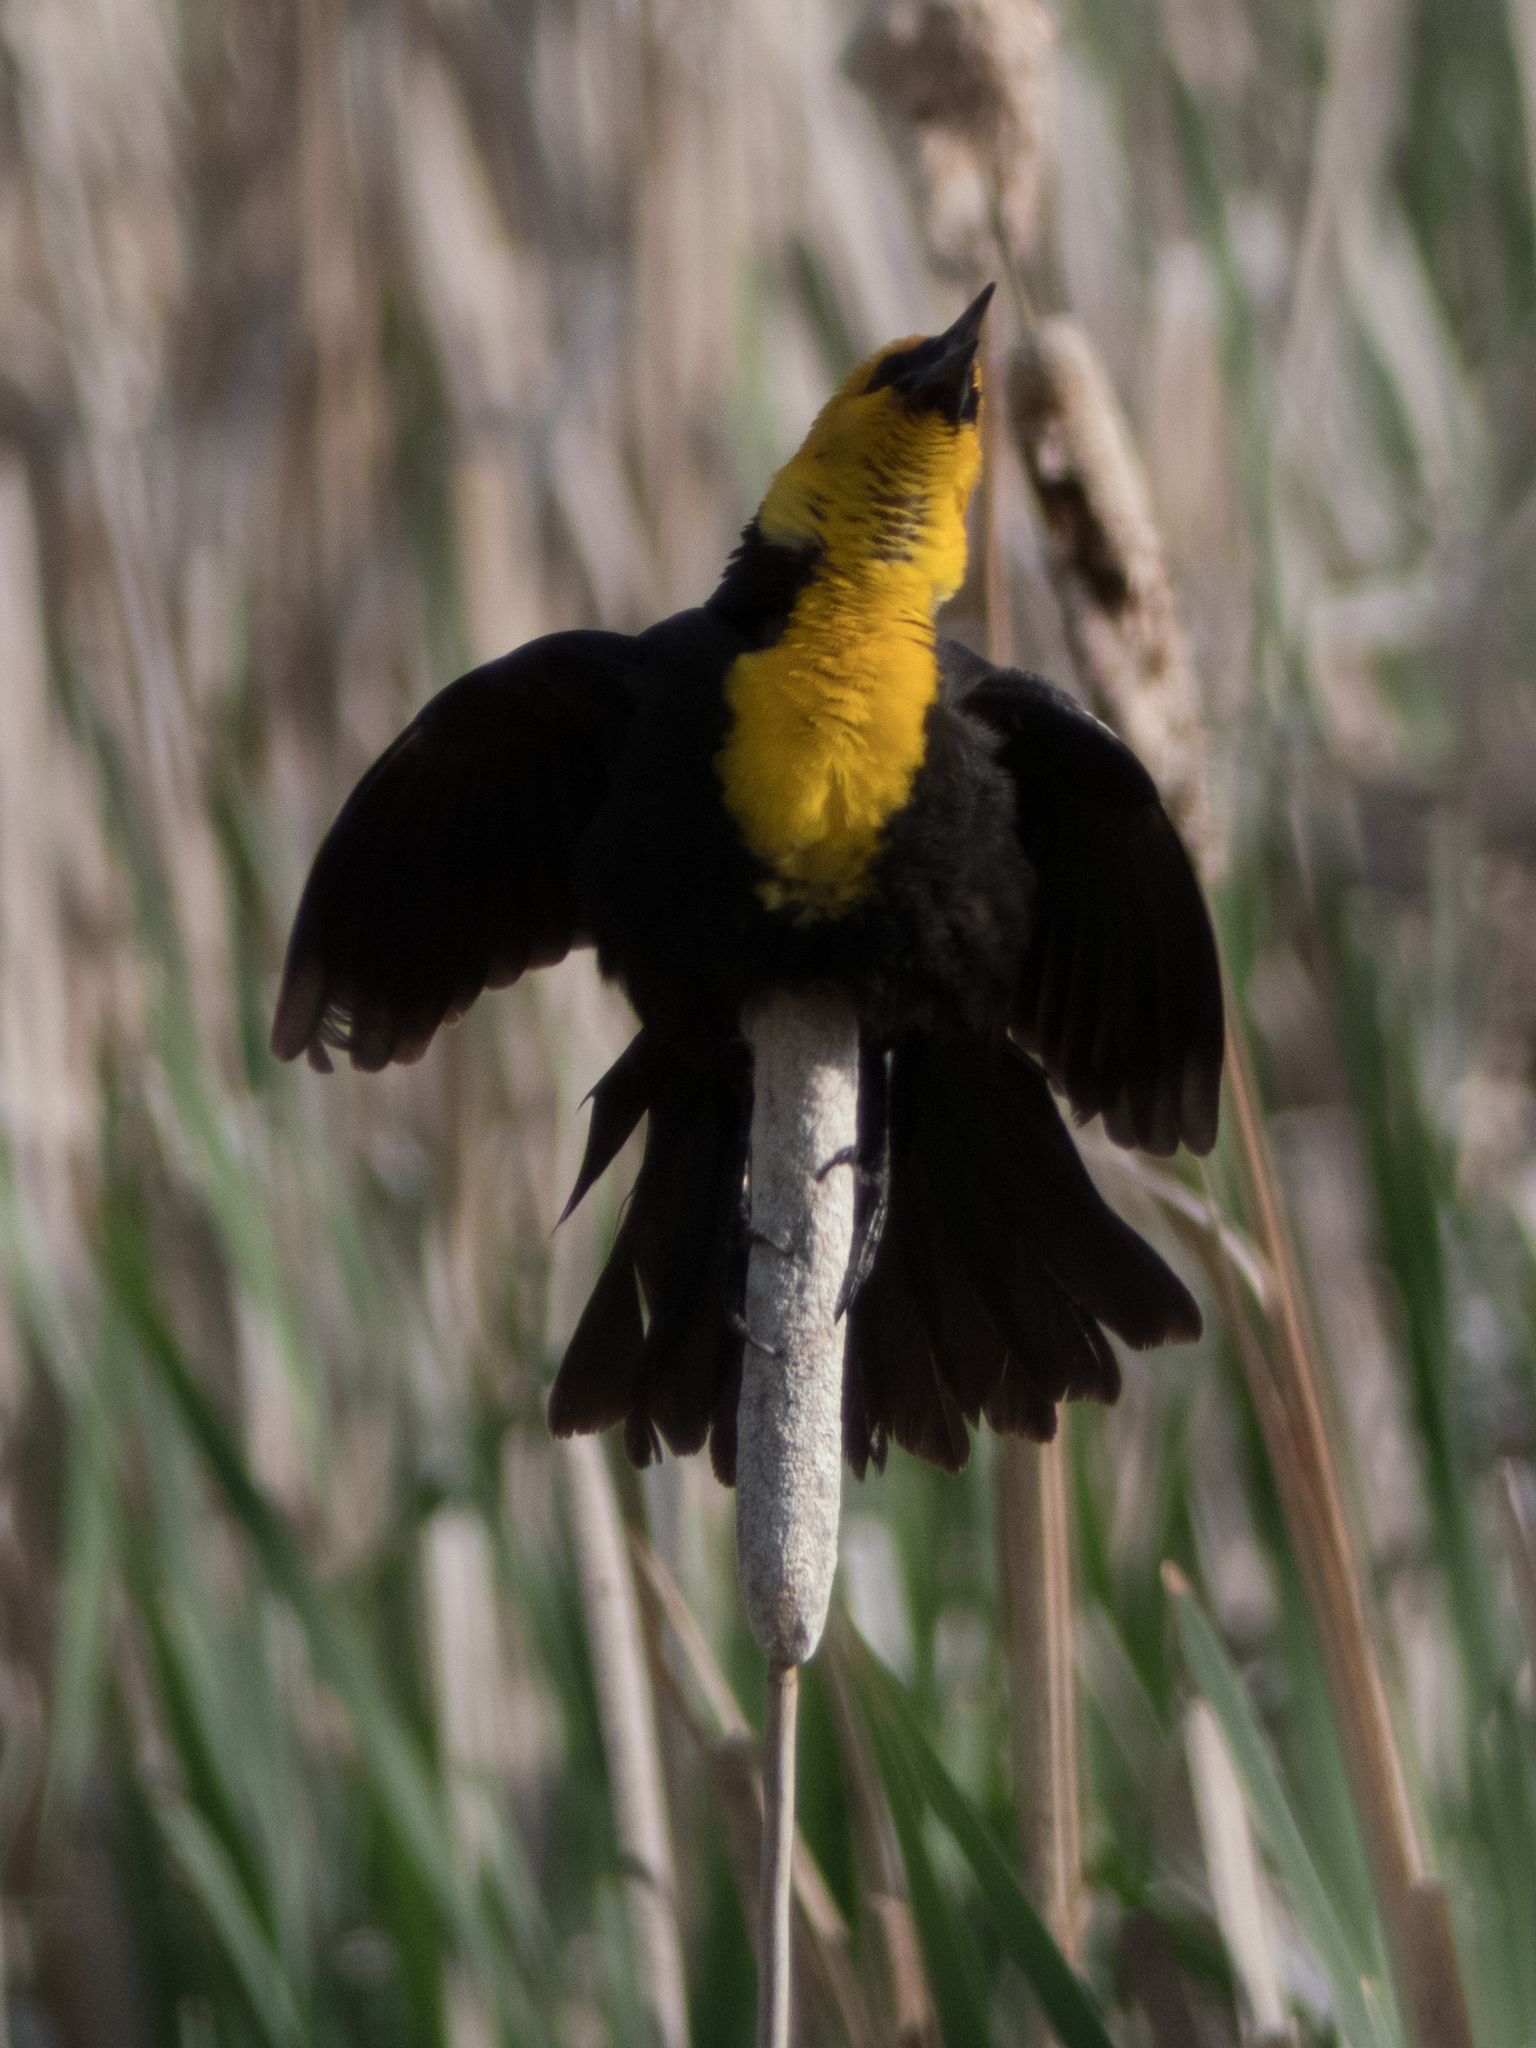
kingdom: Animalia
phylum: Chordata
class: Aves
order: Passeriformes
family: Icteridae
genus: Xanthocephalus
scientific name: Xanthocephalus xanthocephalus
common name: Yellow-headed blackbird
